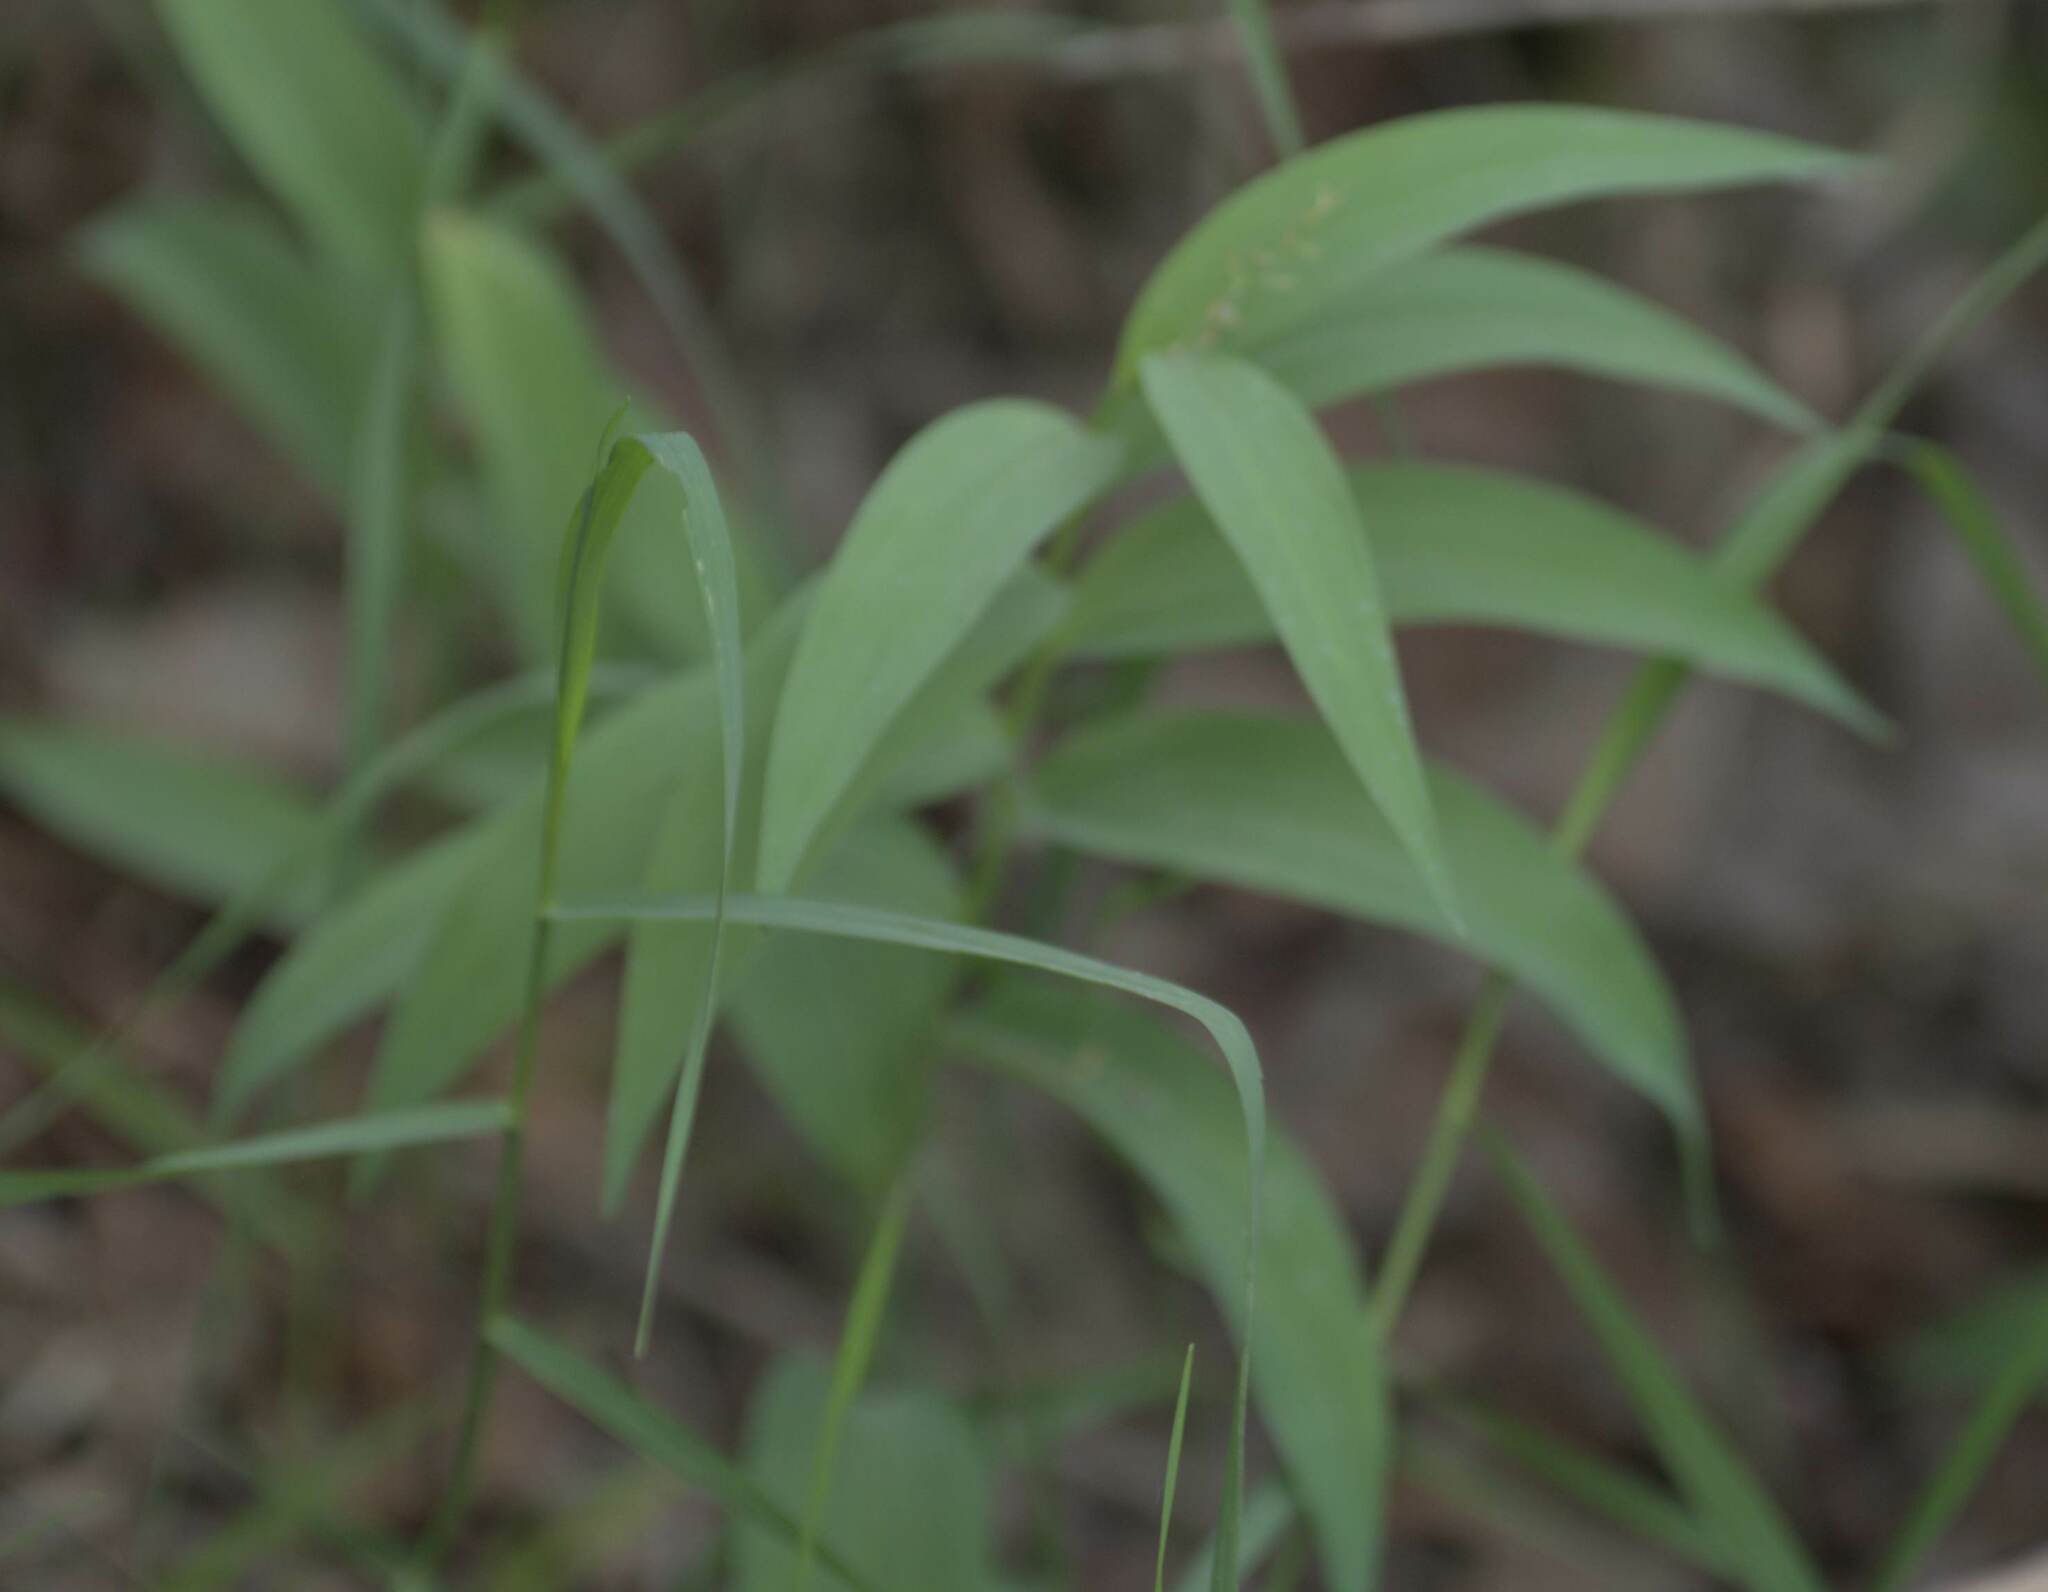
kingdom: Plantae
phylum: Tracheophyta
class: Liliopsida
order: Asparagales
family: Asparagaceae
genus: Maianthemum
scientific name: Maianthemum stellatum
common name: Little false solomon's seal
